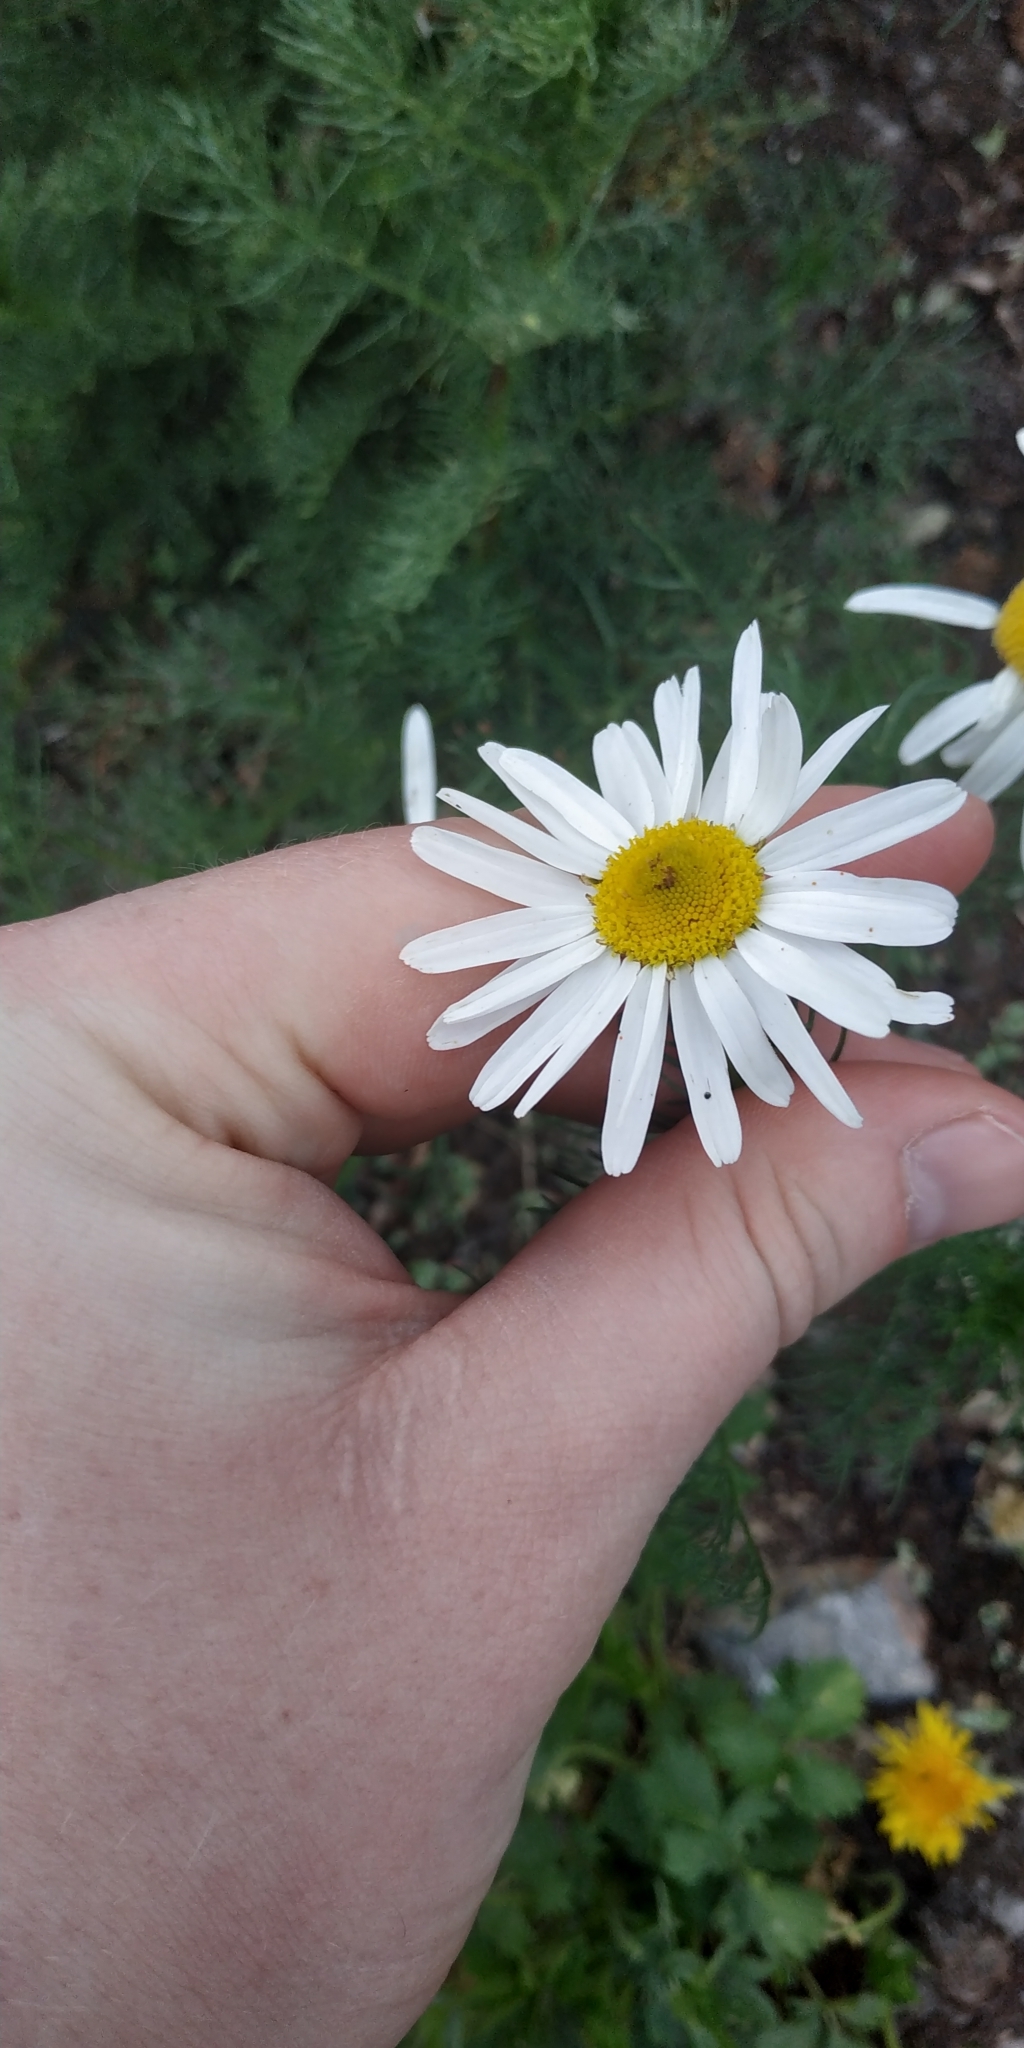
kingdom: Plantae
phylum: Tracheophyta
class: Magnoliopsida
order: Asterales
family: Asteraceae
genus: Tripleurospermum
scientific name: Tripleurospermum inodorum
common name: Scentless mayweed
